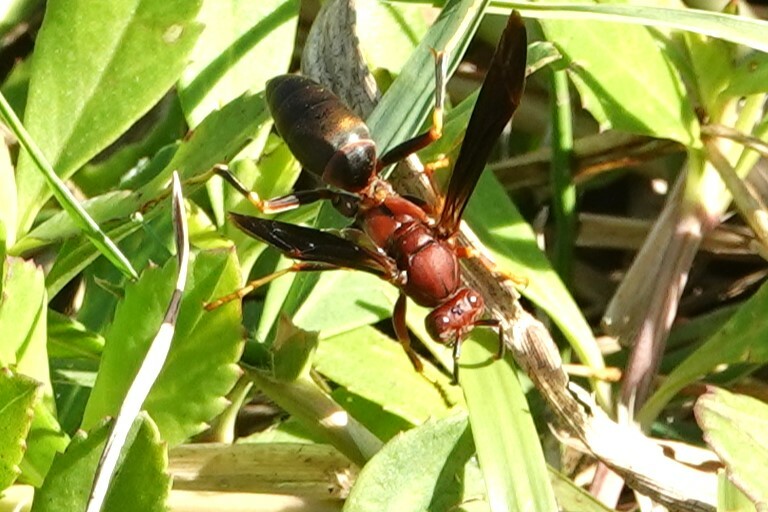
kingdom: Animalia
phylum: Arthropoda
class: Insecta
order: Hymenoptera
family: Eumenidae
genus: Polistes
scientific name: Polistes metricus
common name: Metric paper wasp
